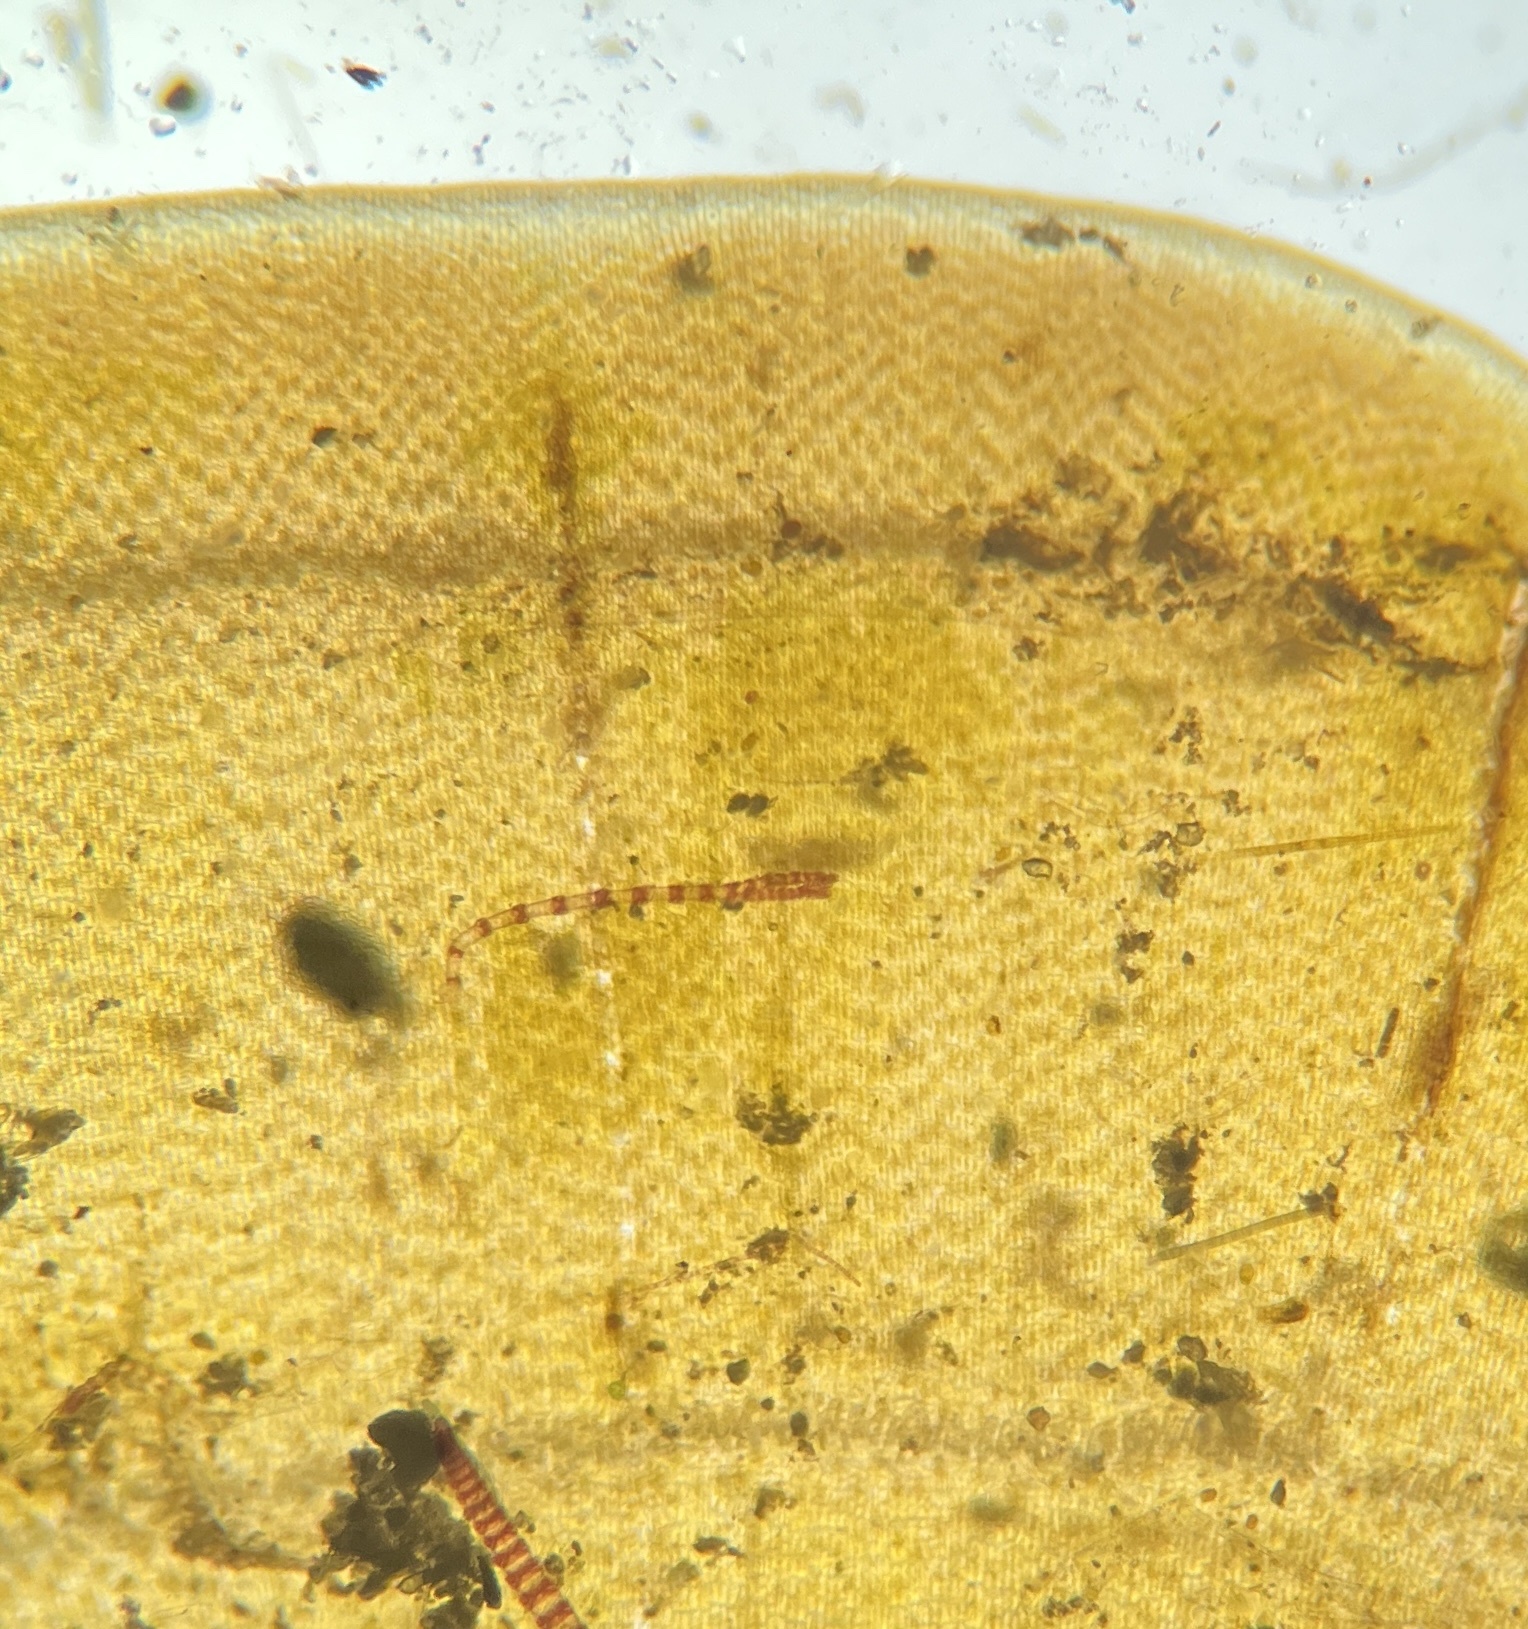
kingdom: Chromista
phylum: Ochrophyta
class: Phaeophyceae
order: Dictyotales
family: Dictyotaceae
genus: Lobophora
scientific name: Lobophora variegata
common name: Encrusting fan-leaf algae
